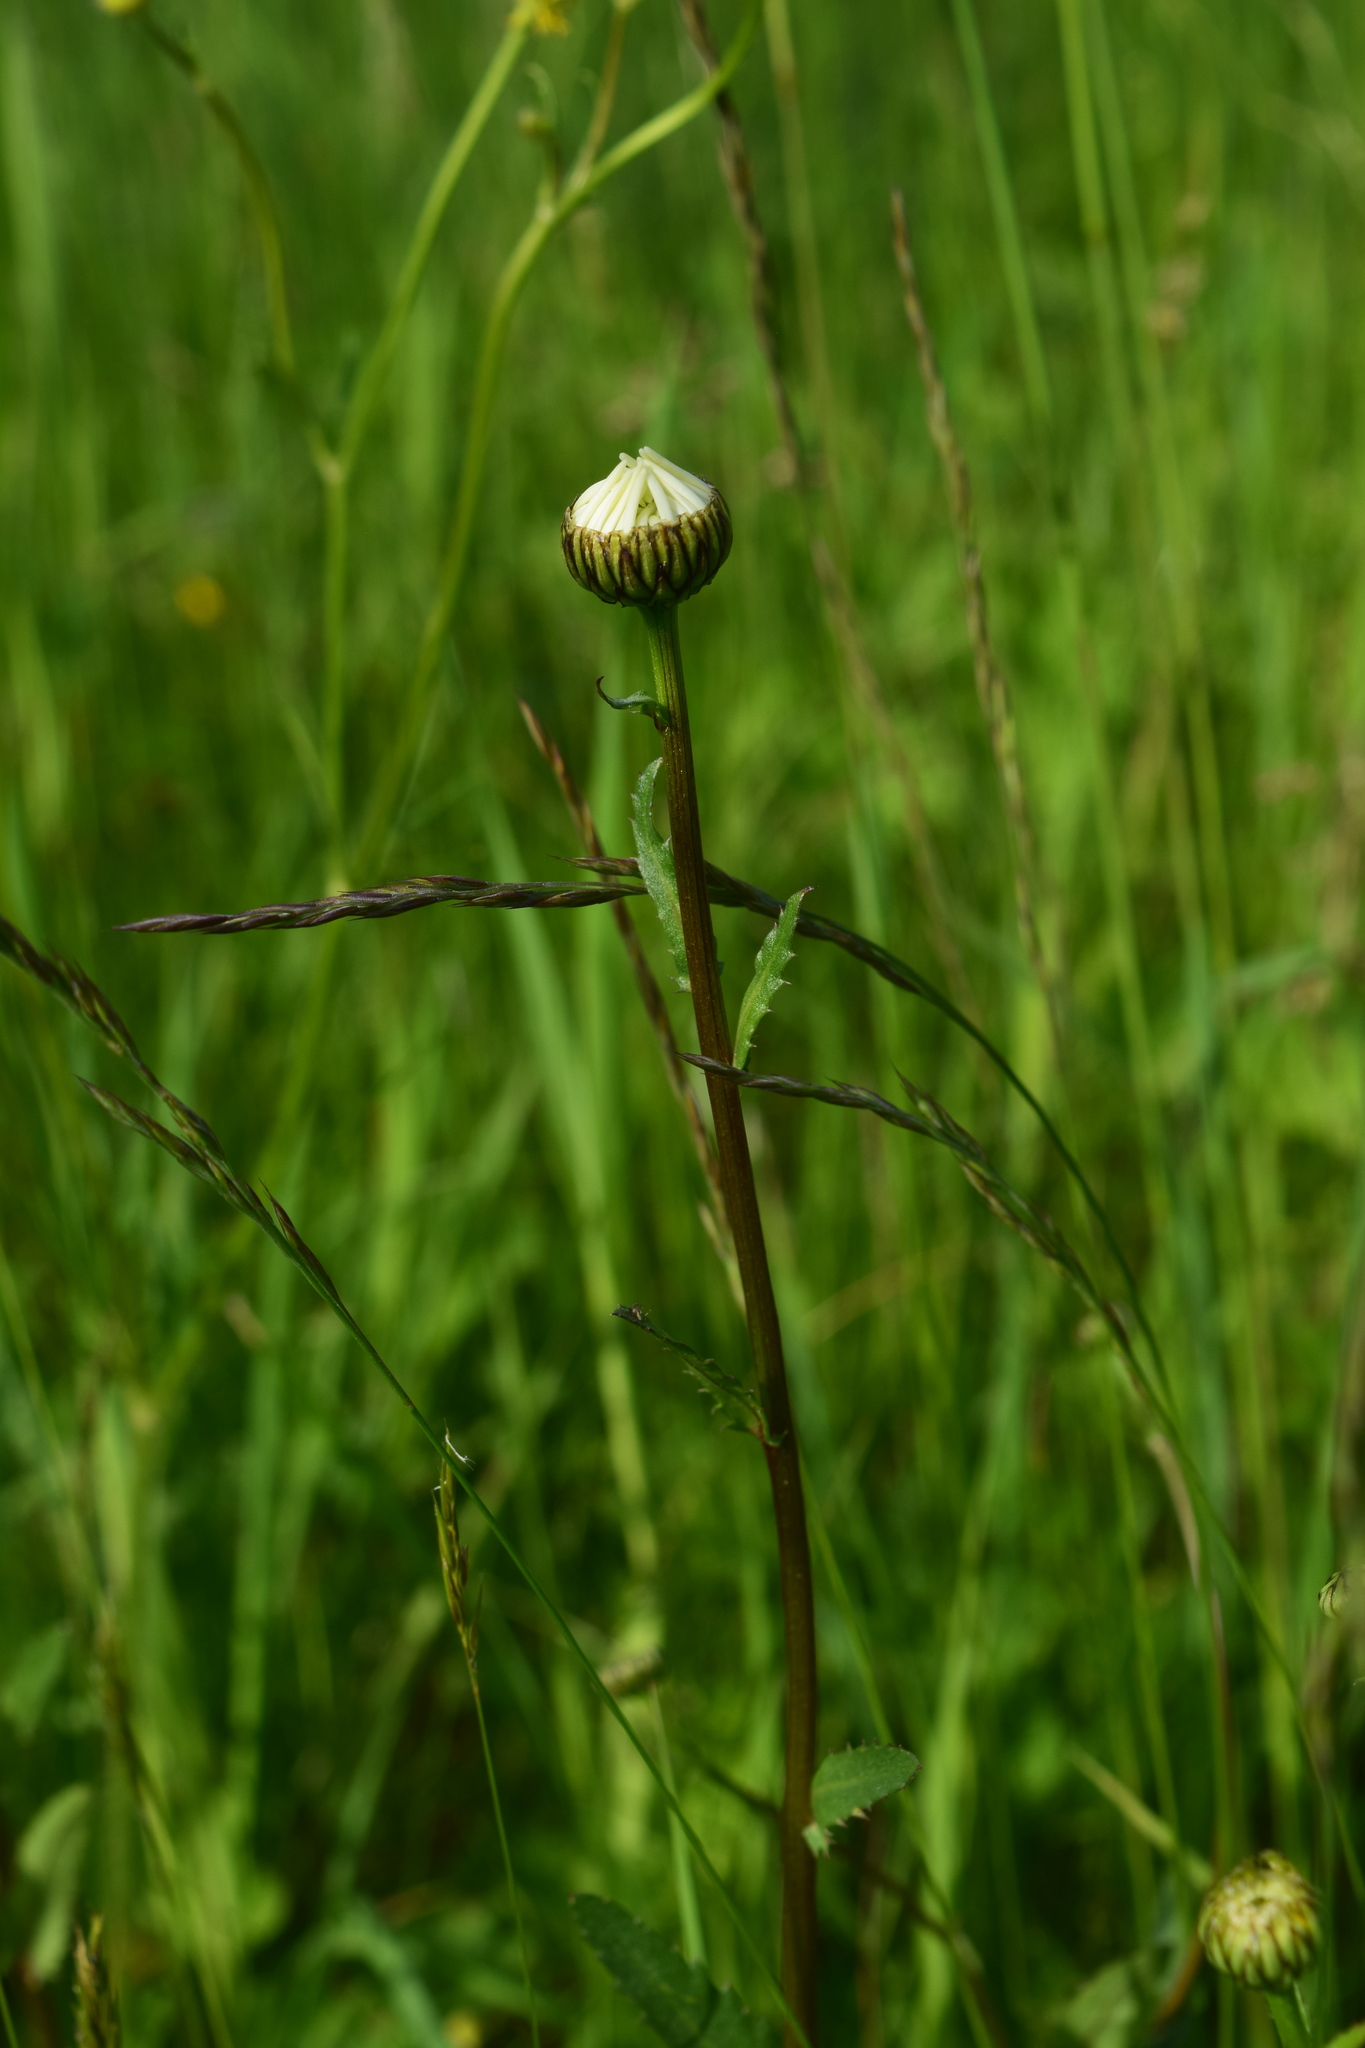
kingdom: Plantae
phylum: Tracheophyta
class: Magnoliopsida
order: Asterales
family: Asteraceae
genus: Leucanthemum
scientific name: Leucanthemum vulgare
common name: Oxeye daisy
